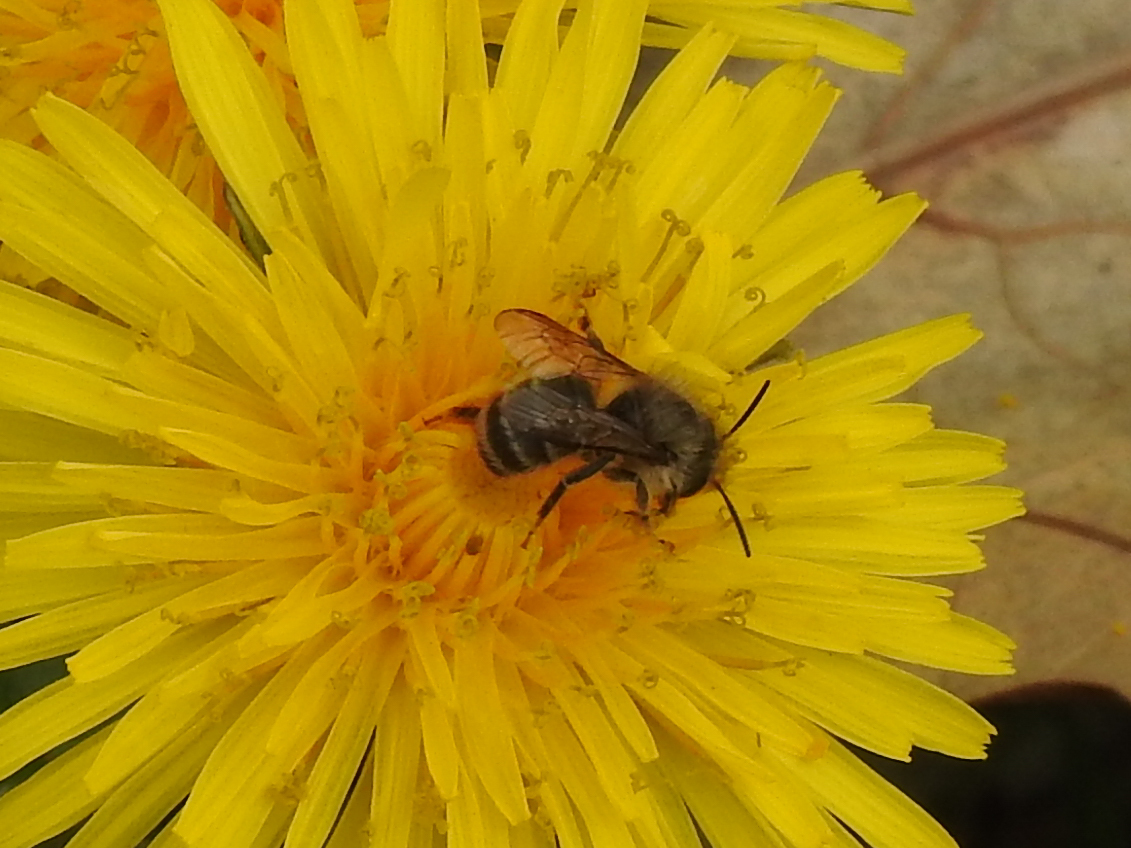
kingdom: Animalia
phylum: Arthropoda
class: Insecta
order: Hymenoptera
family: Megachilidae
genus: Osmia
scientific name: Osmia cornifrons
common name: Horn-faced bee
